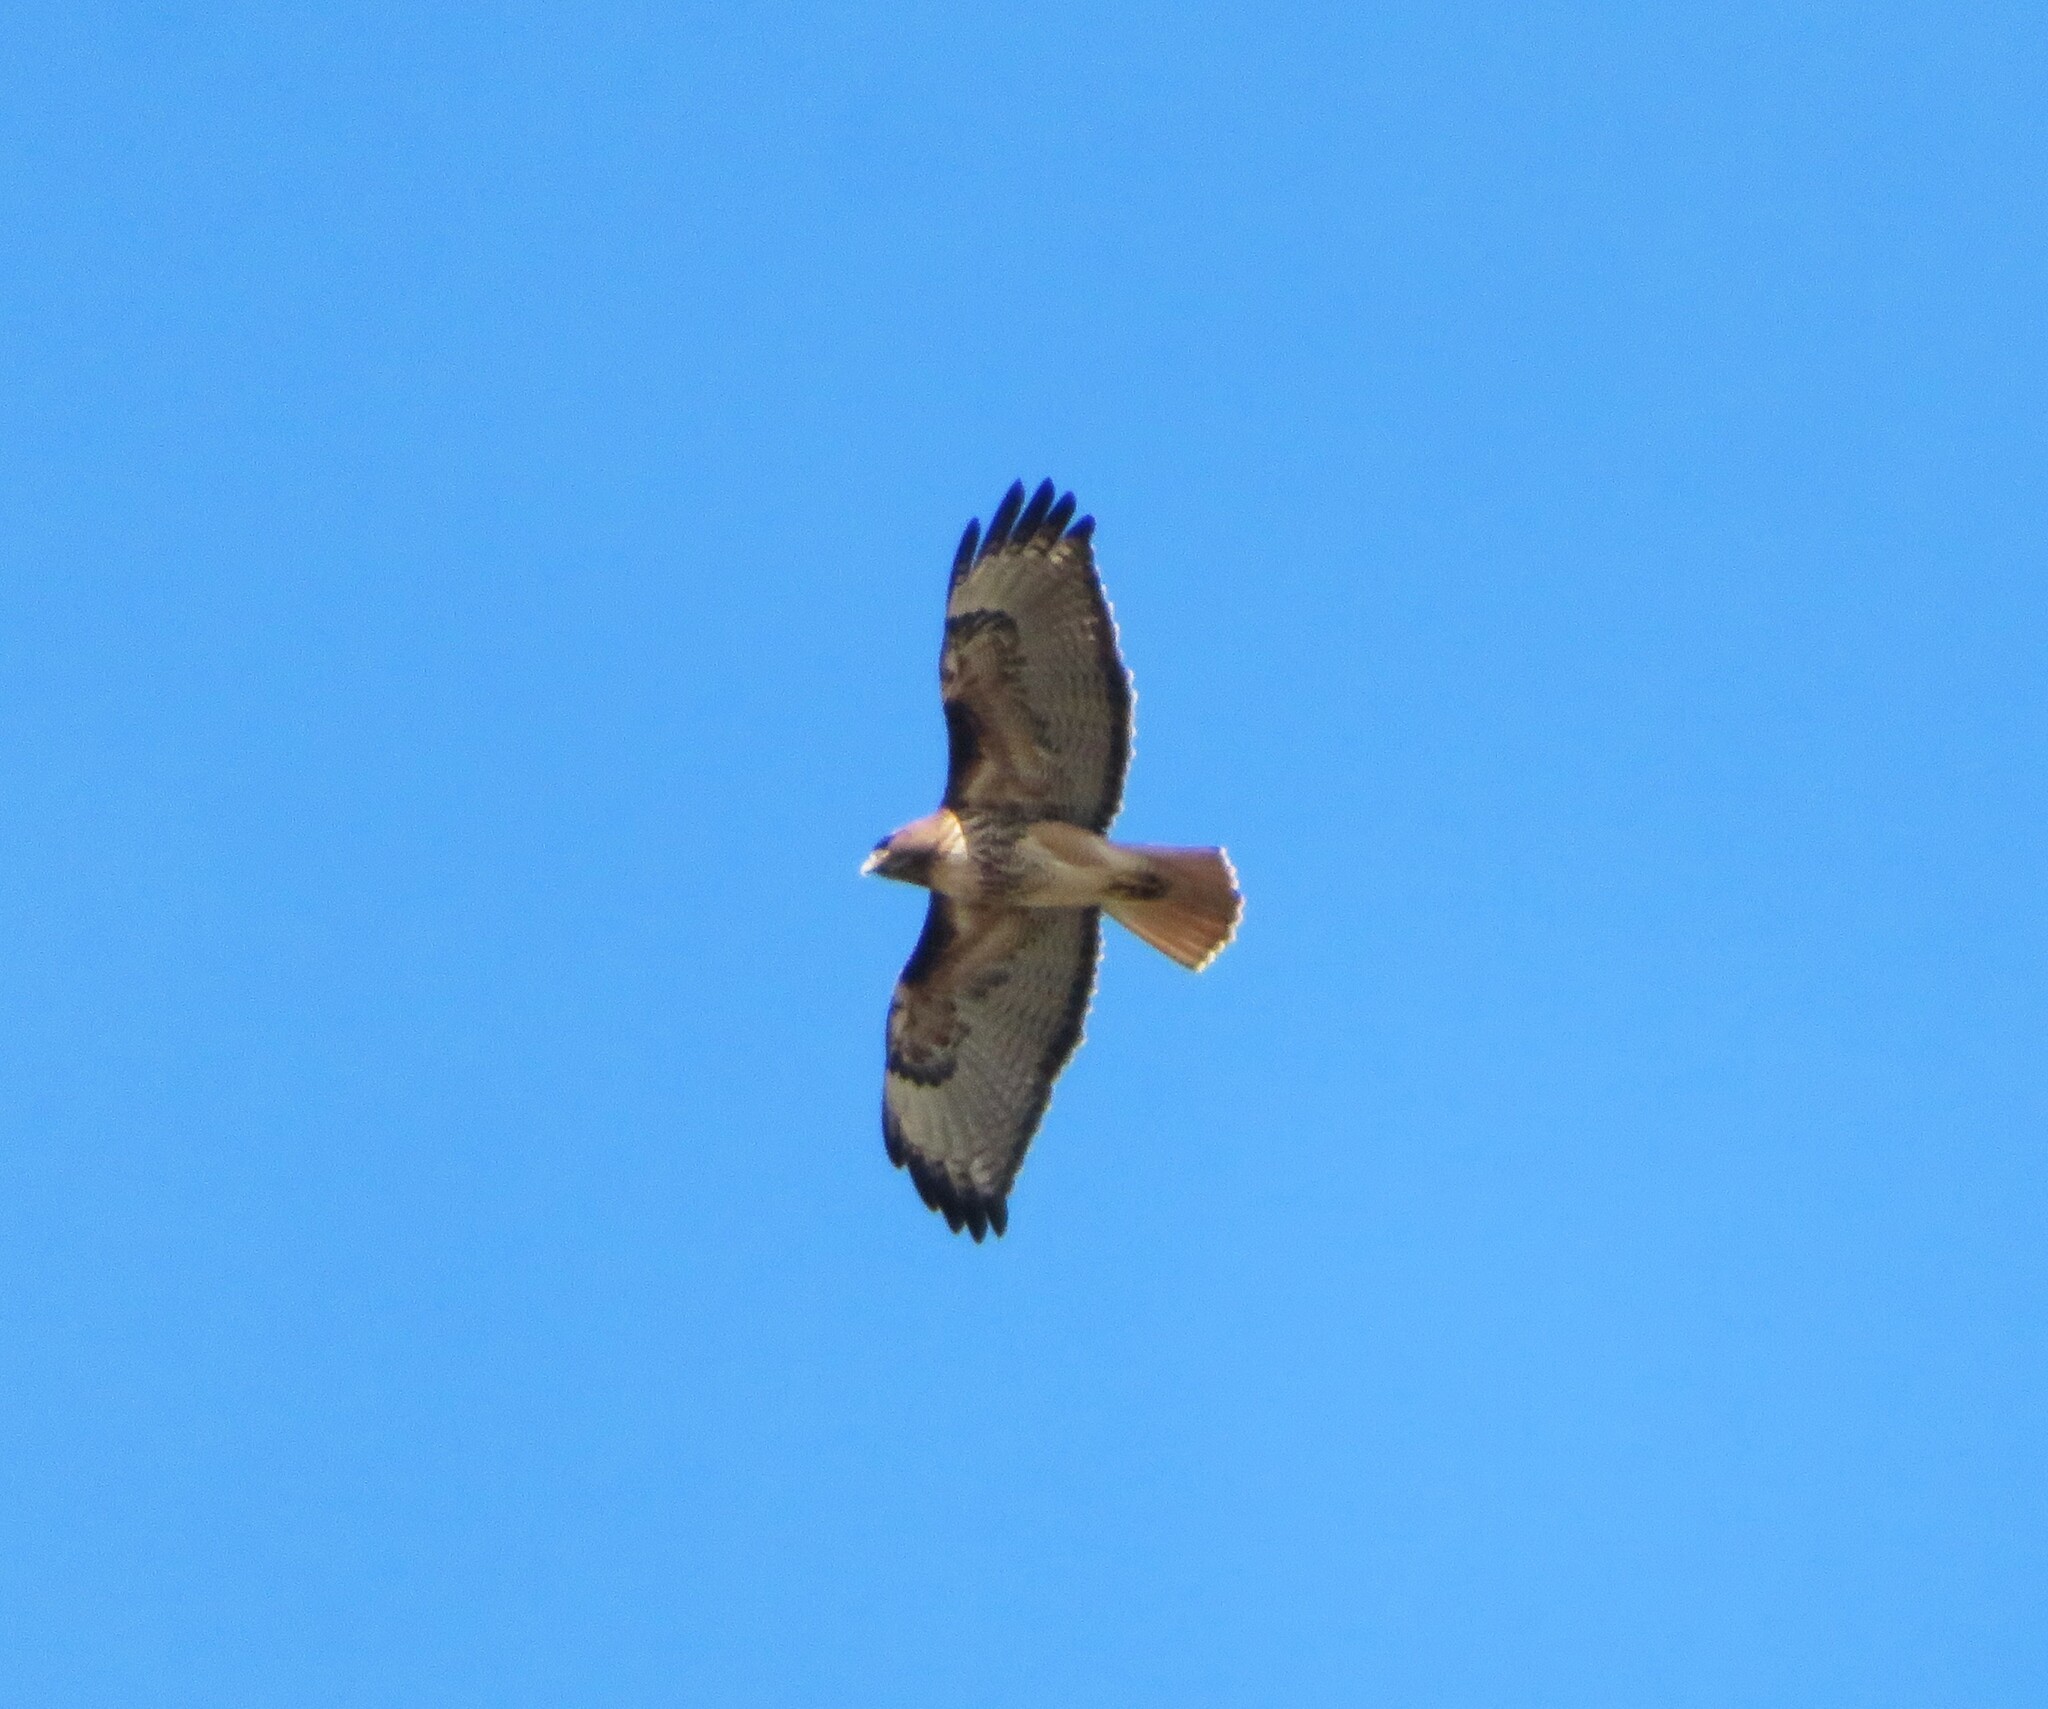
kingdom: Animalia
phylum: Chordata
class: Aves
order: Accipitriformes
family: Accipitridae
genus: Buteo
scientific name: Buteo jamaicensis
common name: Red-tailed hawk
